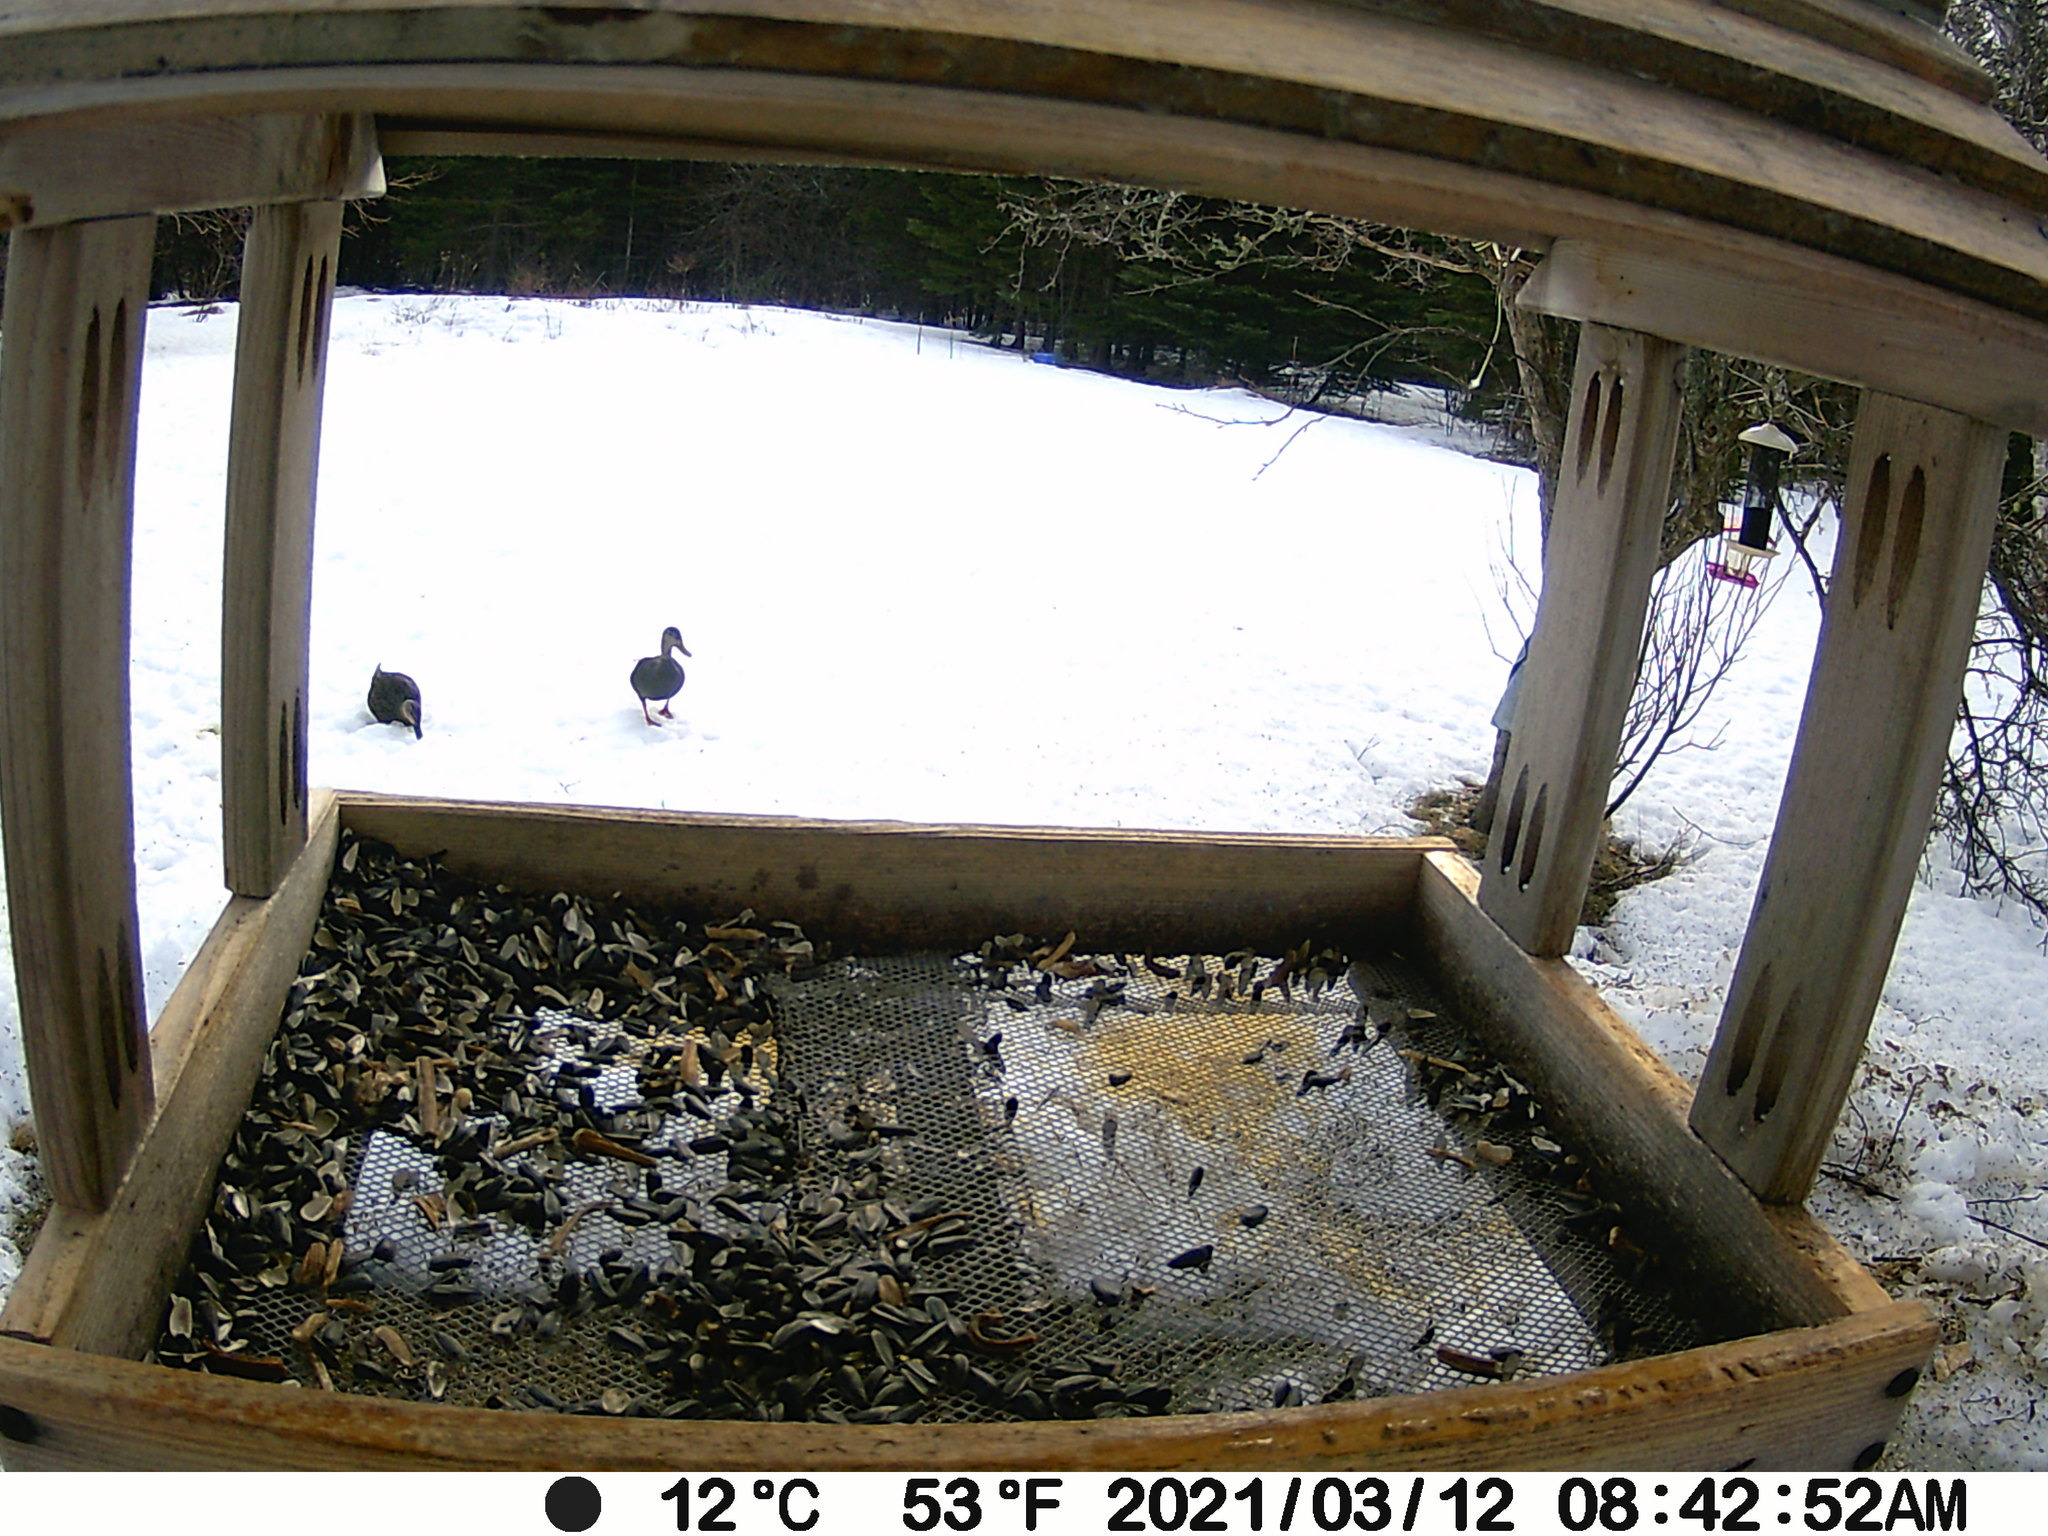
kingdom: Animalia
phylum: Chordata
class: Aves
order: Anseriformes
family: Anatidae
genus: Anas
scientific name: Anas rubripes
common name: American black duck
